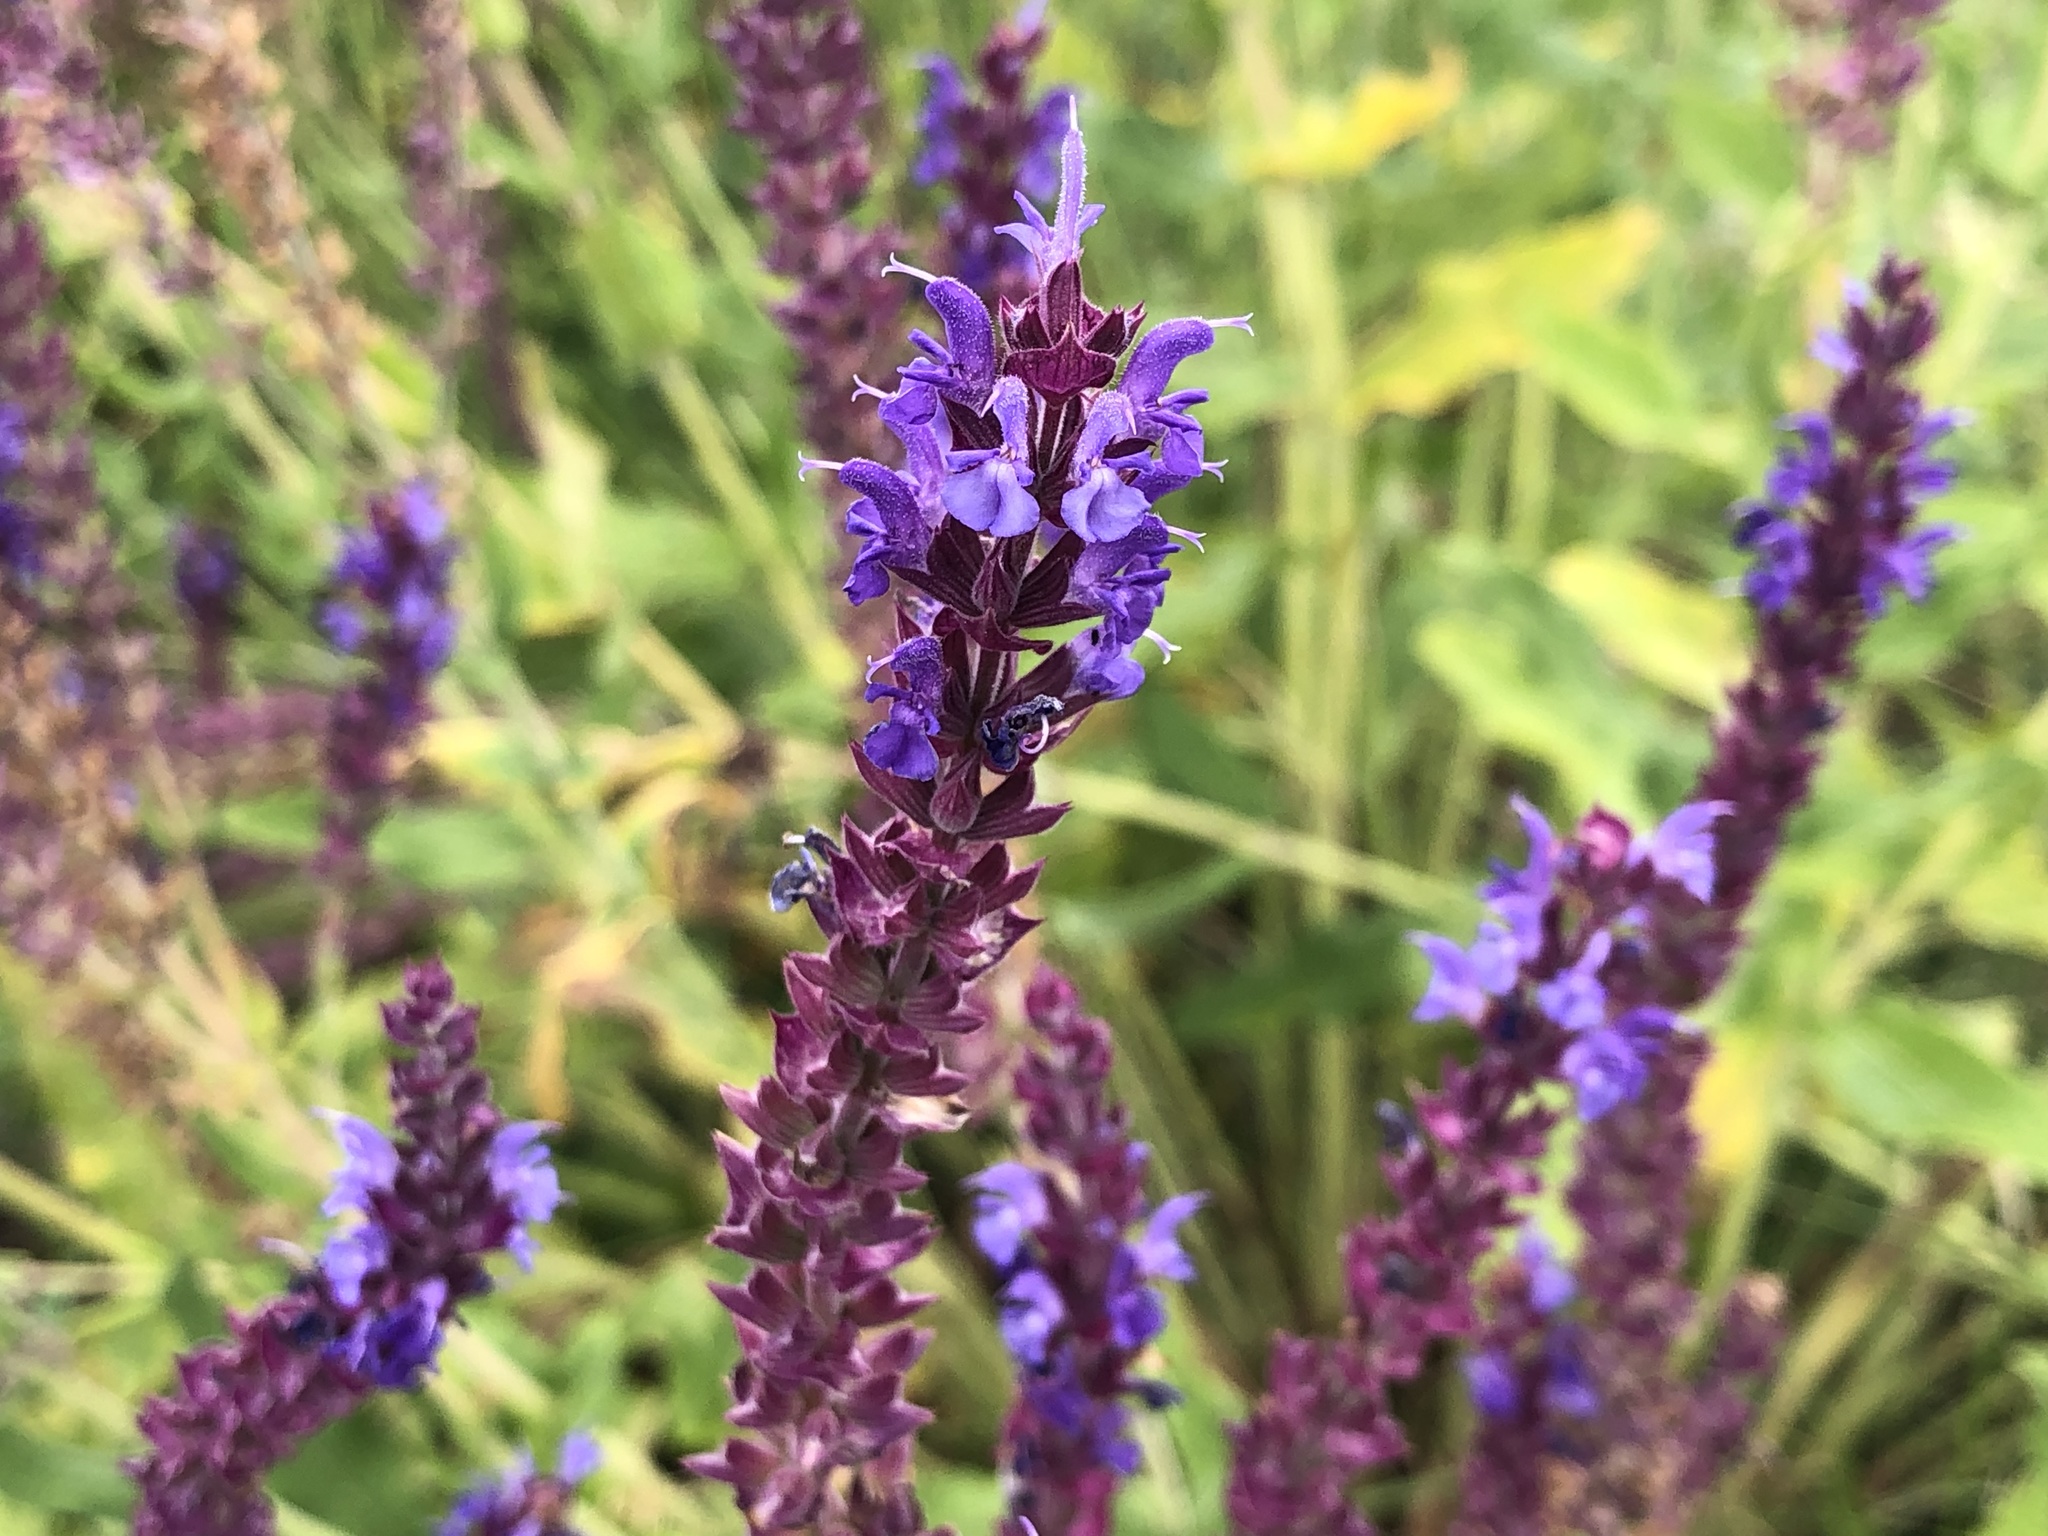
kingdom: Plantae
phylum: Tracheophyta
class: Magnoliopsida
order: Lamiales
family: Lamiaceae
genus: Salvia
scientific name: Salvia nemorosa
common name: Balkan clary
